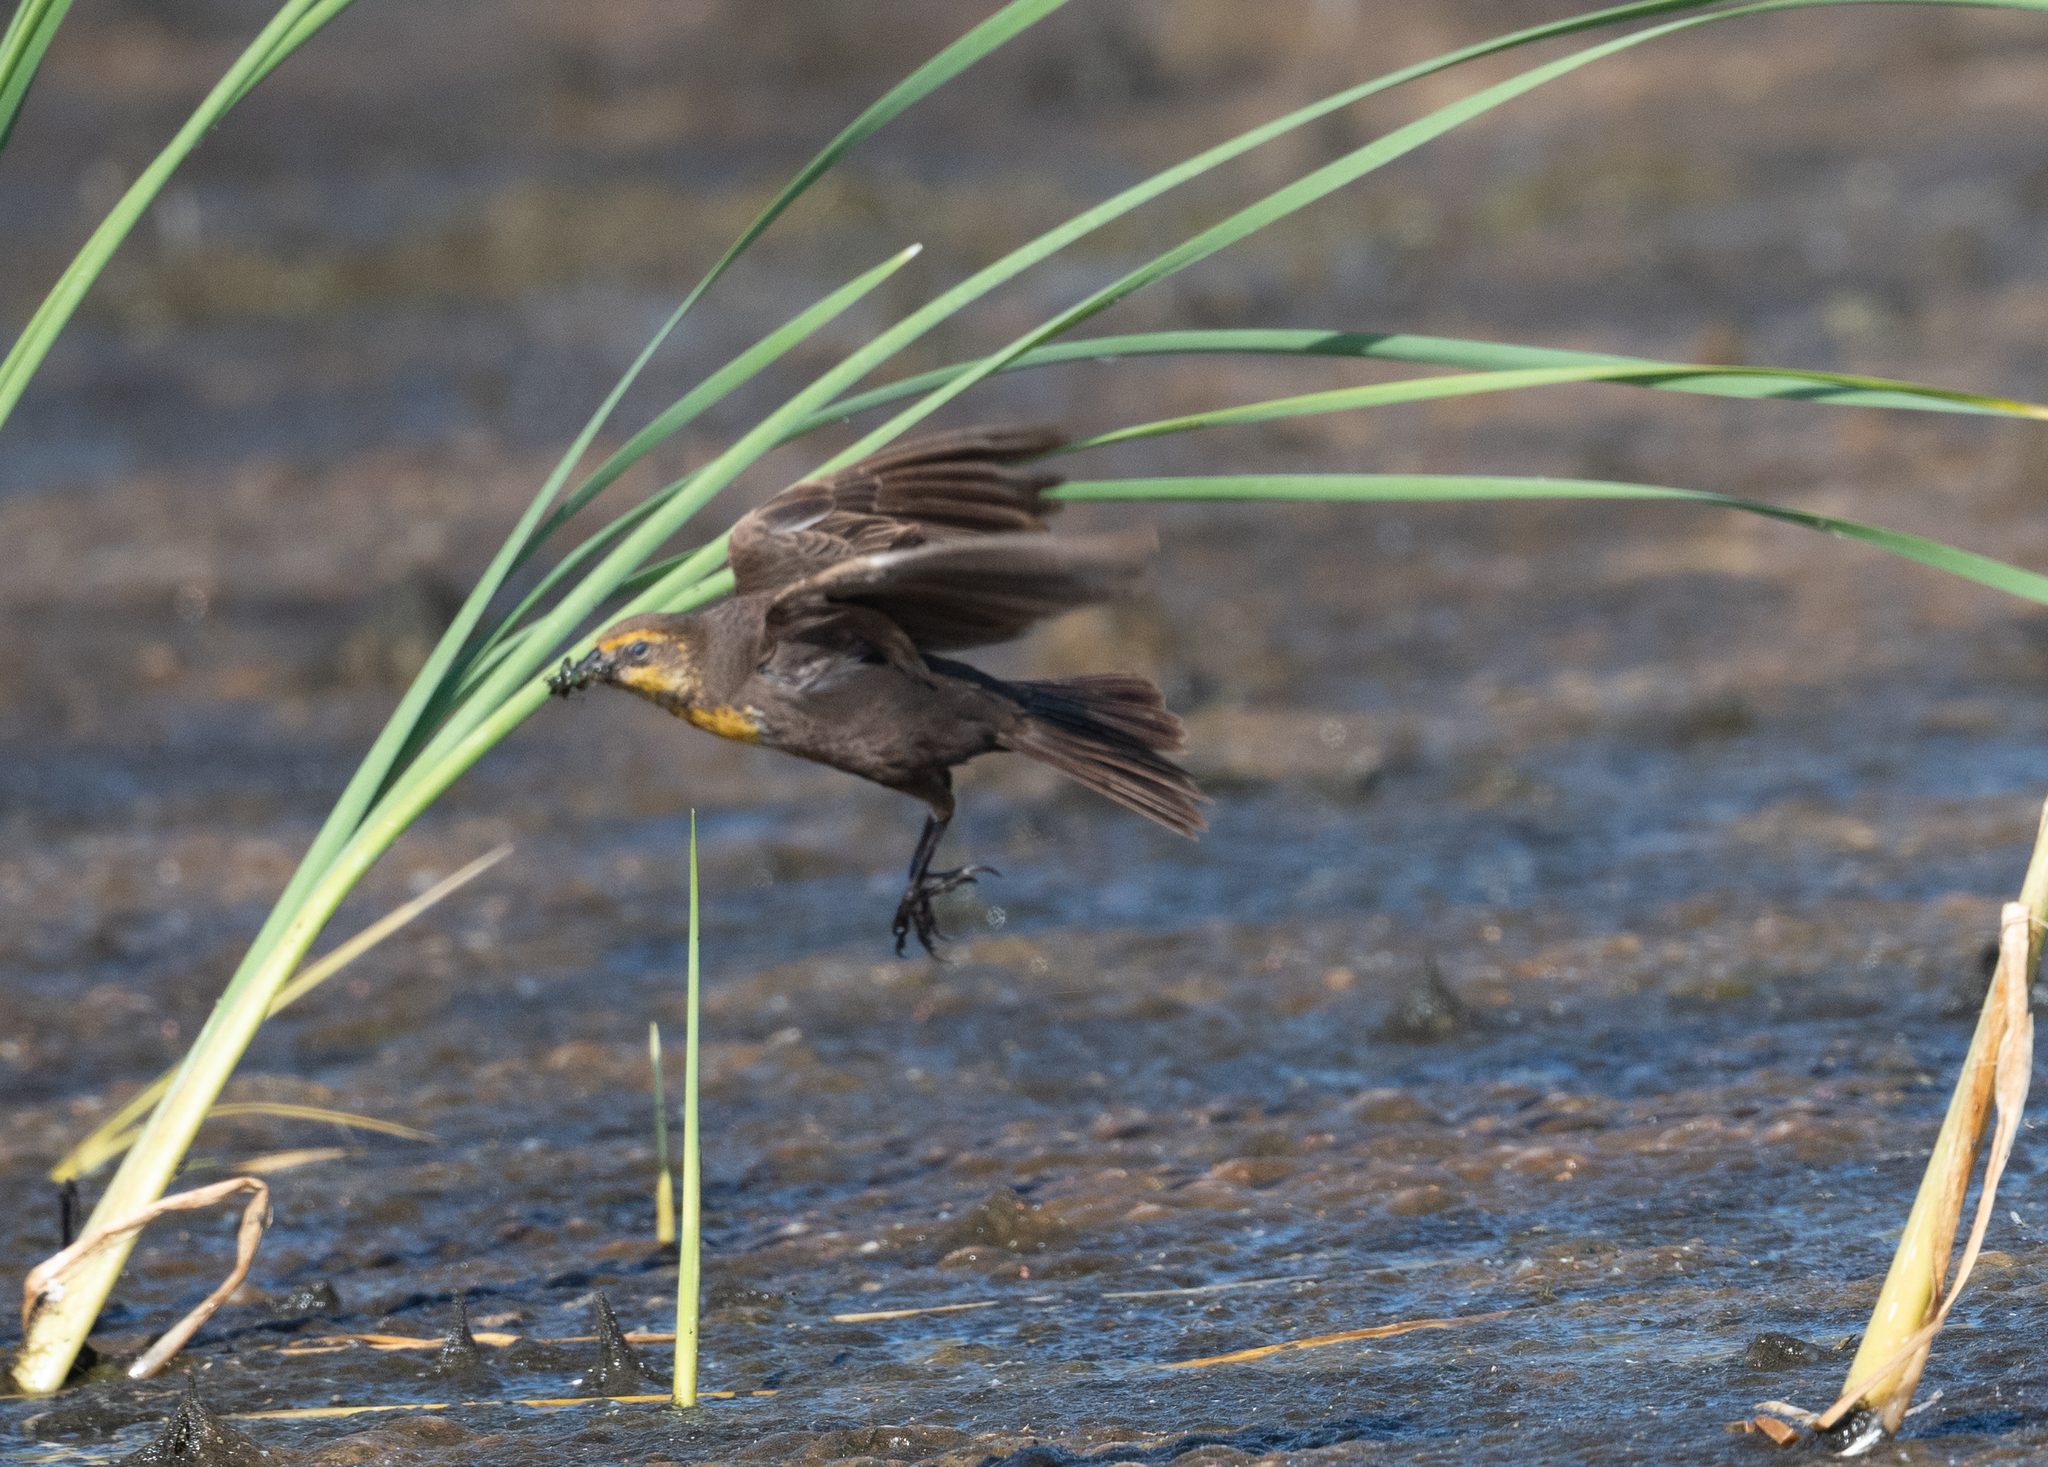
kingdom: Animalia
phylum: Chordata
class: Aves
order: Passeriformes
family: Icteridae
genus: Xanthocephalus
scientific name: Xanthocephalus xanthocephalus
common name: Yellow-headed blackbird
